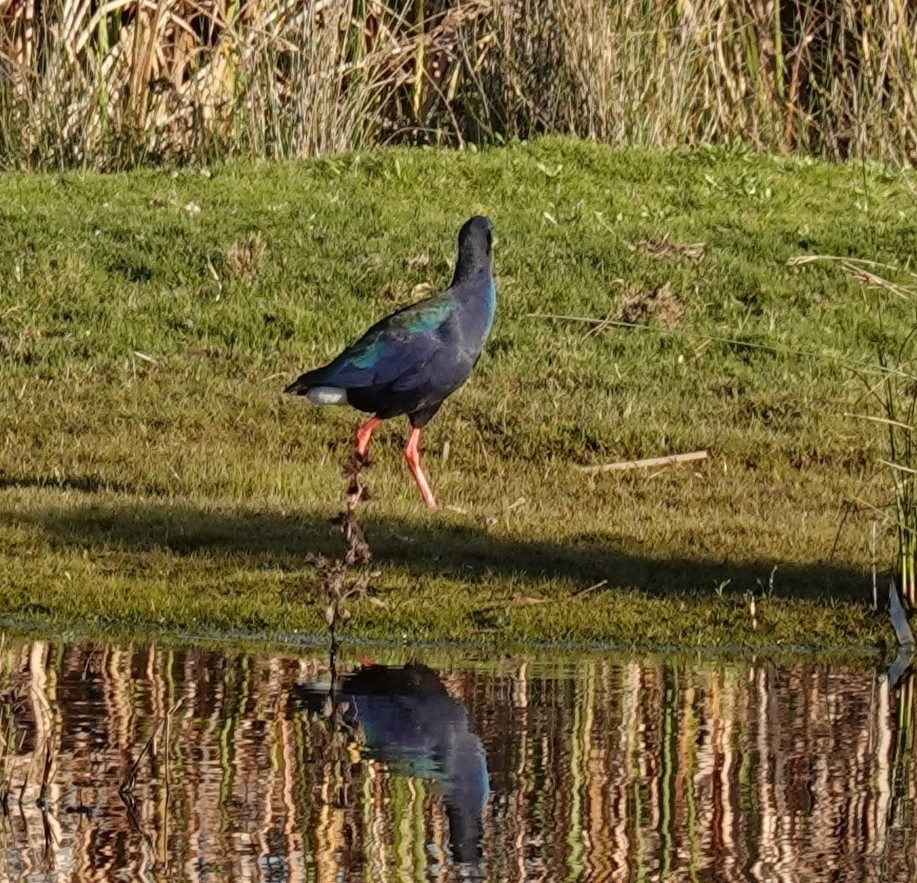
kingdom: Animalia
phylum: Chordata
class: Aves
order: Gruiformes
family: Rallidae
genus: Porphyrio
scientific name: Porphyrio porphyrio
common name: Purple swamphen
